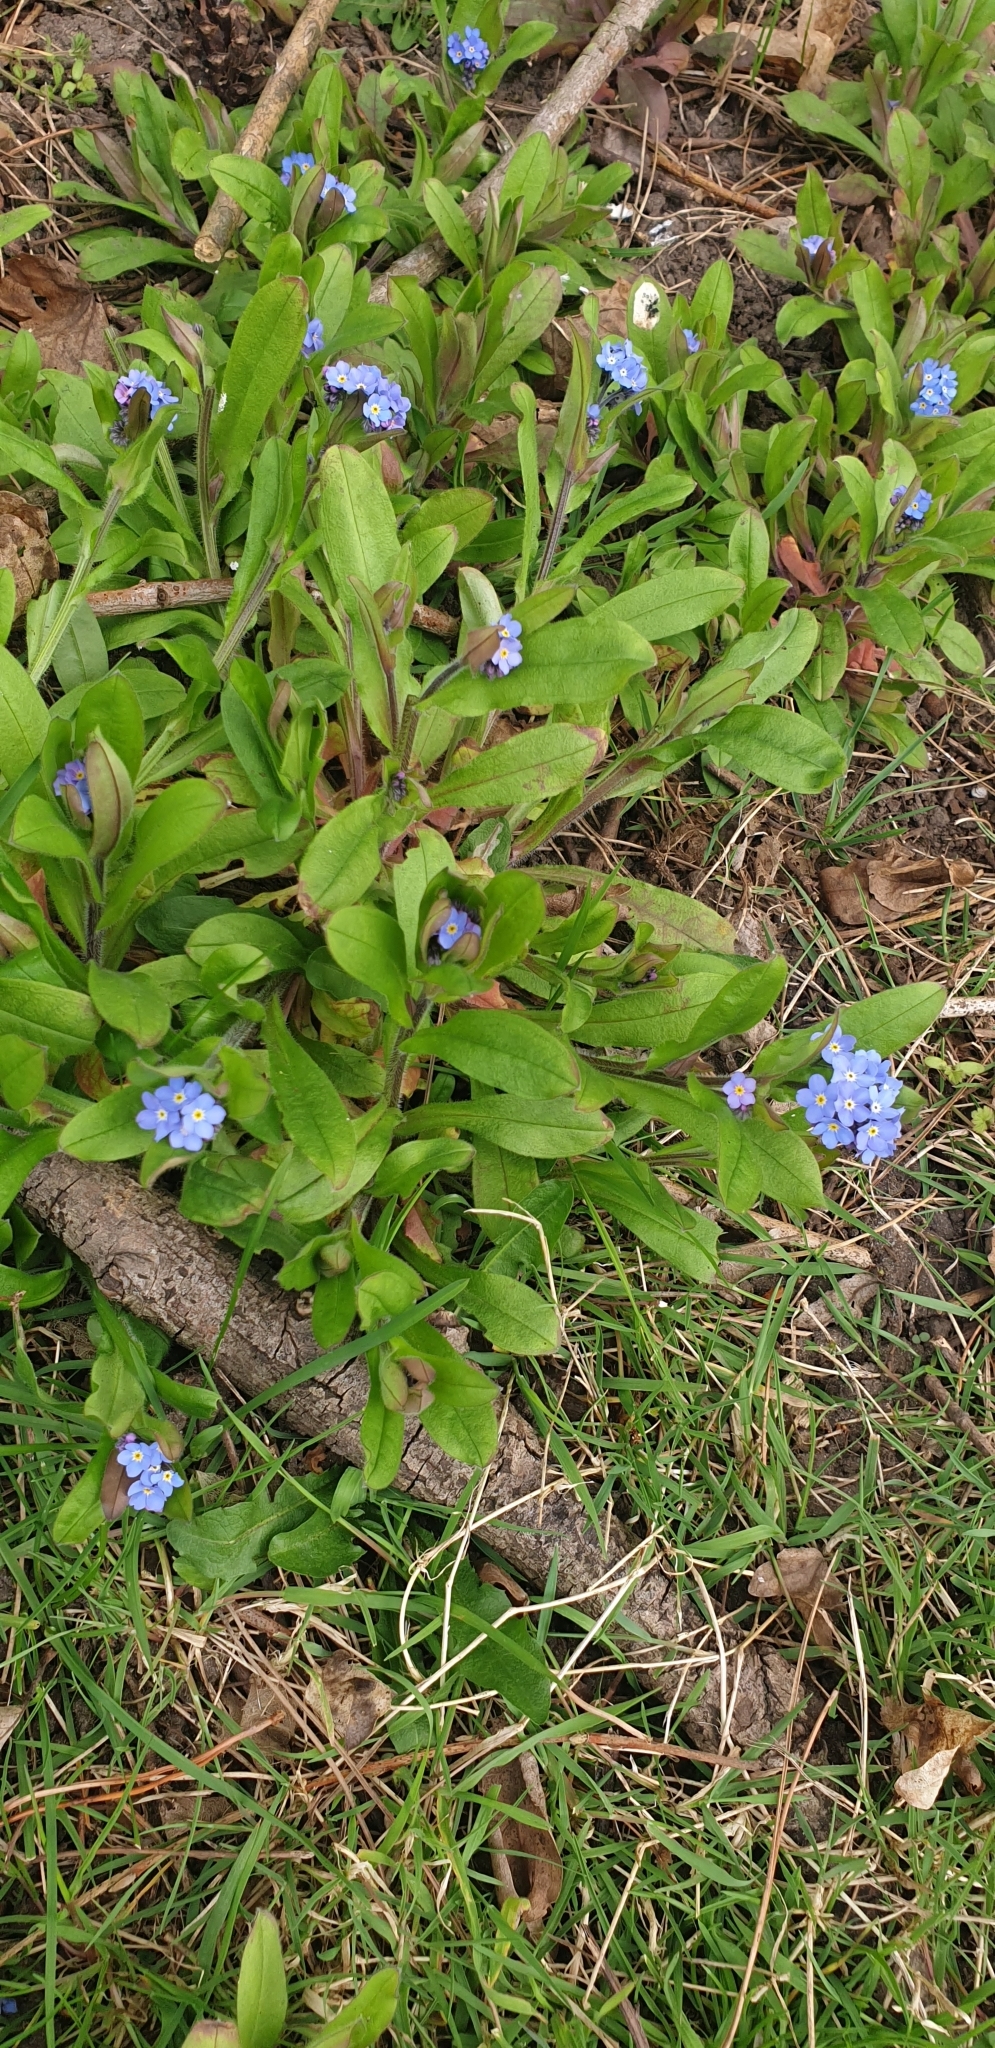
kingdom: Plantae
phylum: Tracheophyta
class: Magnoliopsida
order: Boraginales
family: Boraginaceae
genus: Myosotis
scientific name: Myosotis sylvatica
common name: Wood forget-me-not
